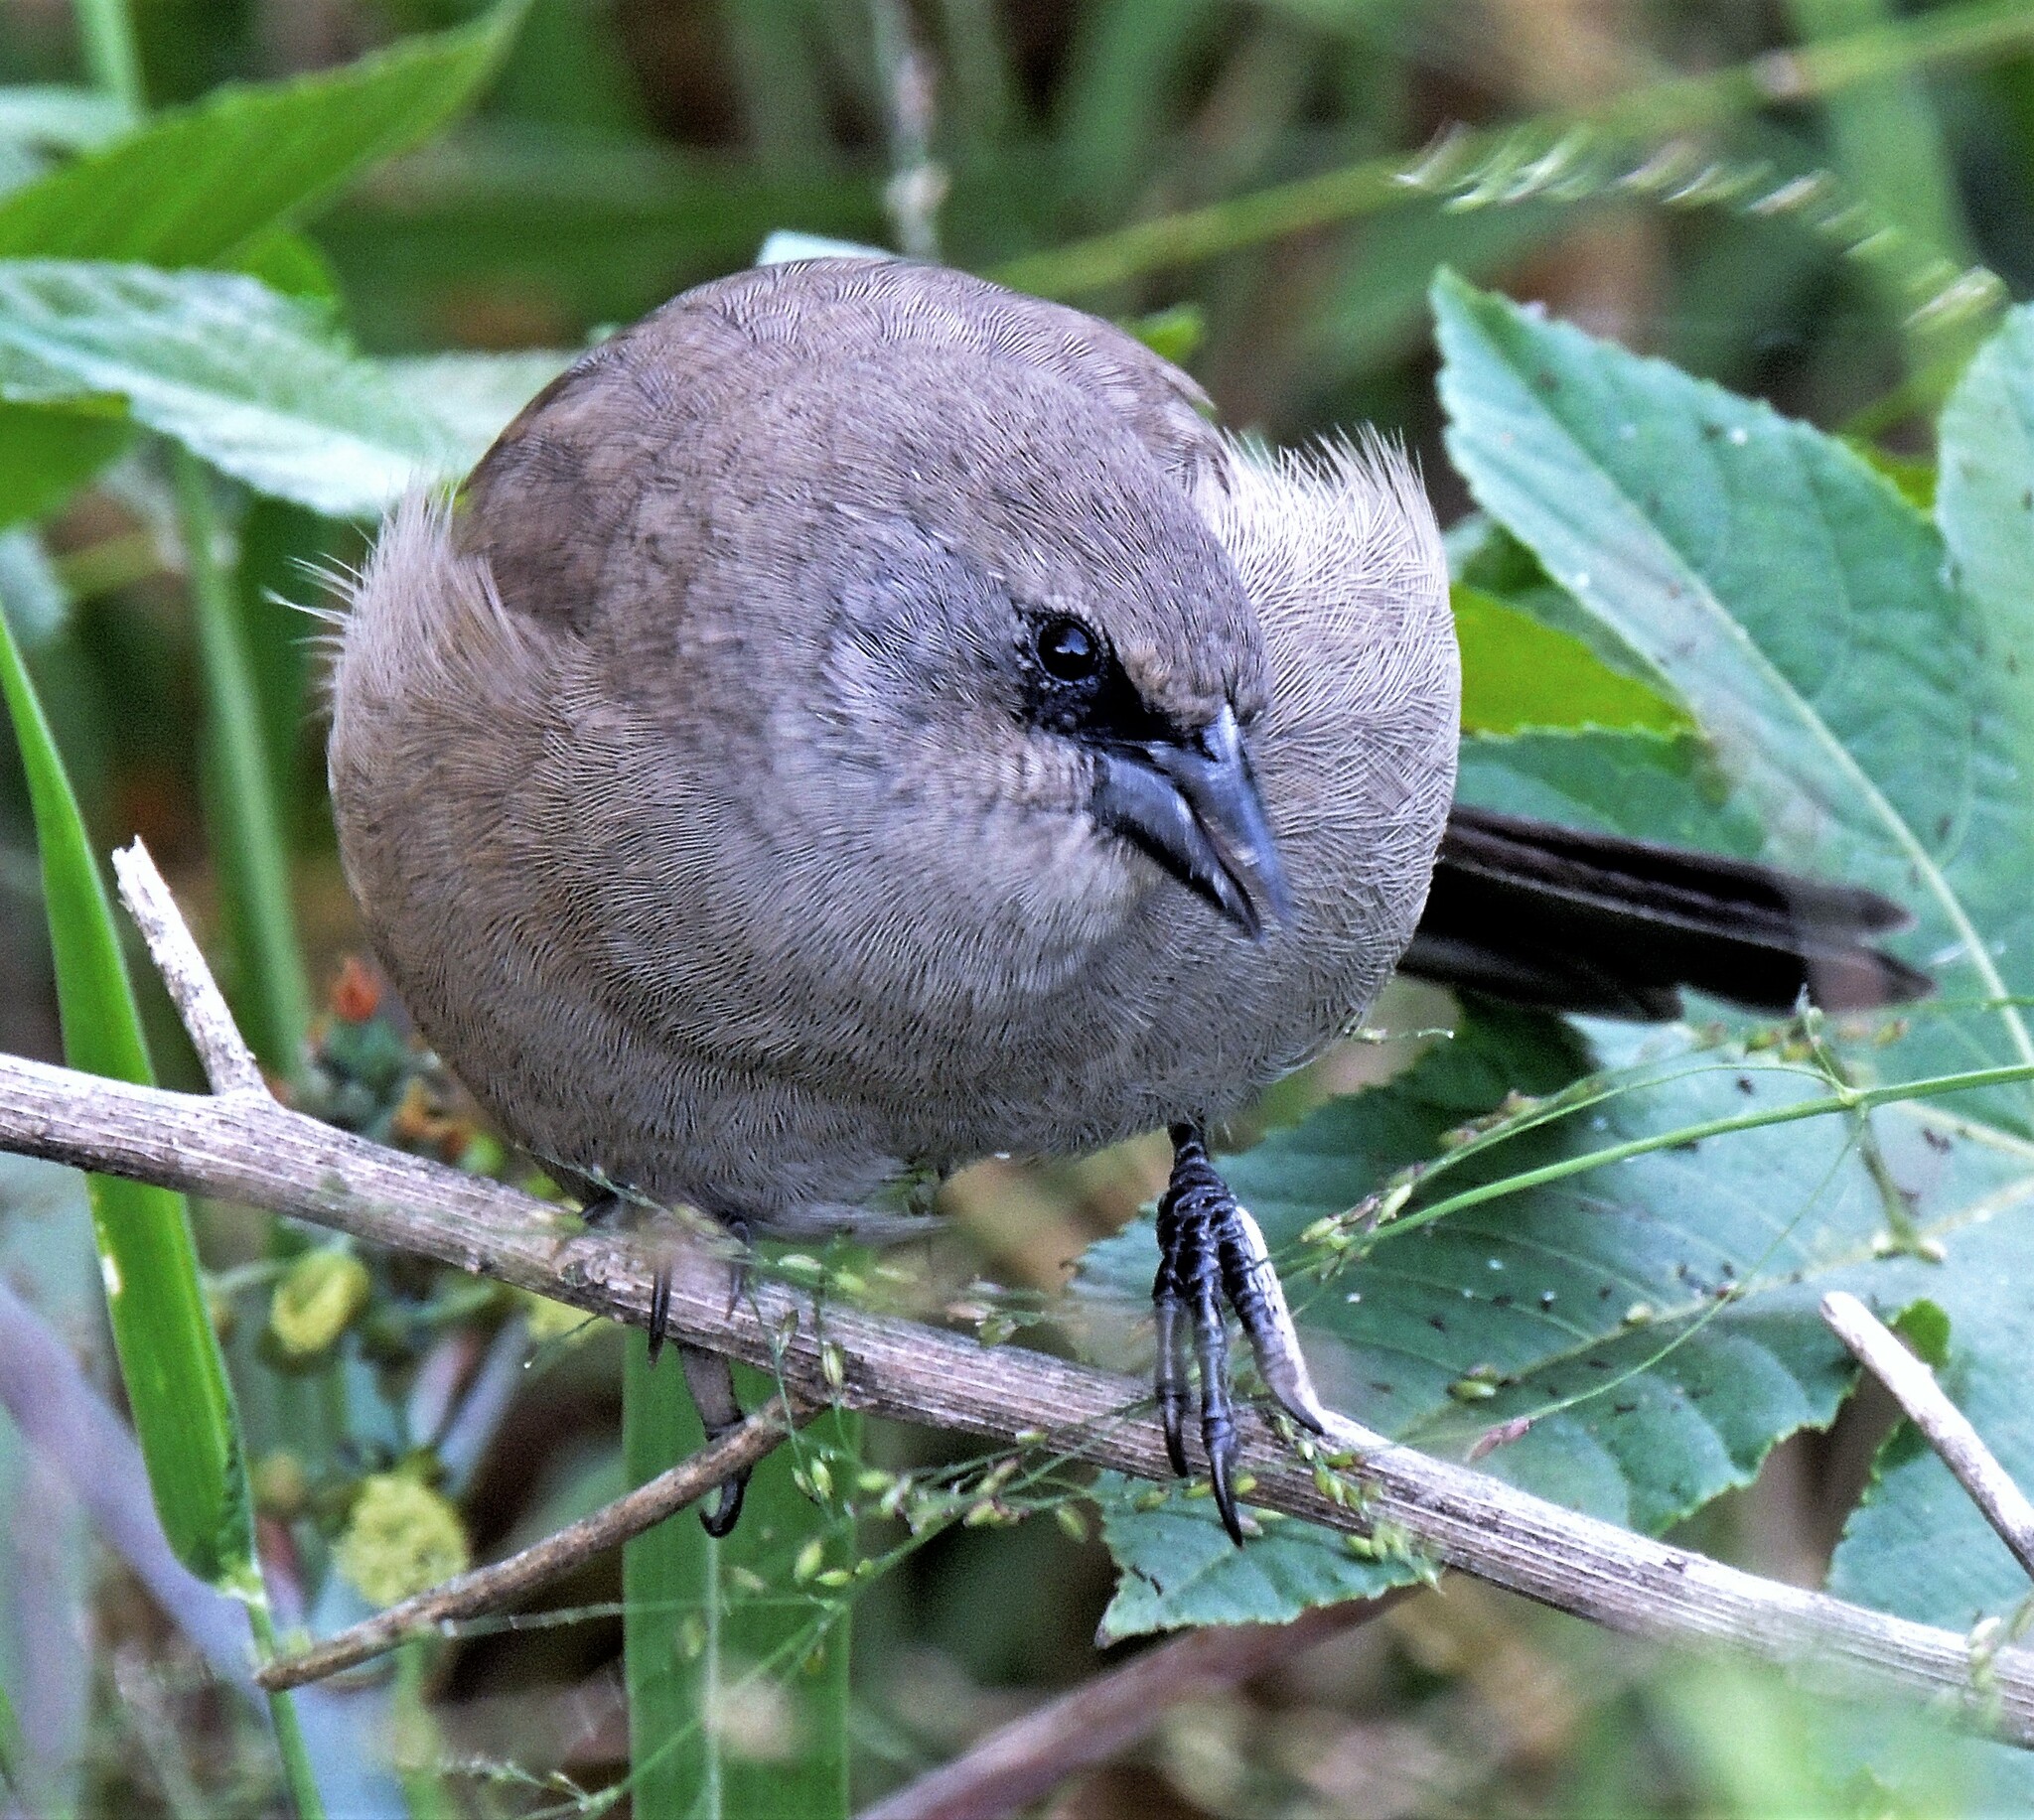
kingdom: Animalia
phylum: Chordata
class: Aves
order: Passeriformes
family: Icteridae
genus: Agelaioides
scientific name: Agelaioides badius
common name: Baywing
